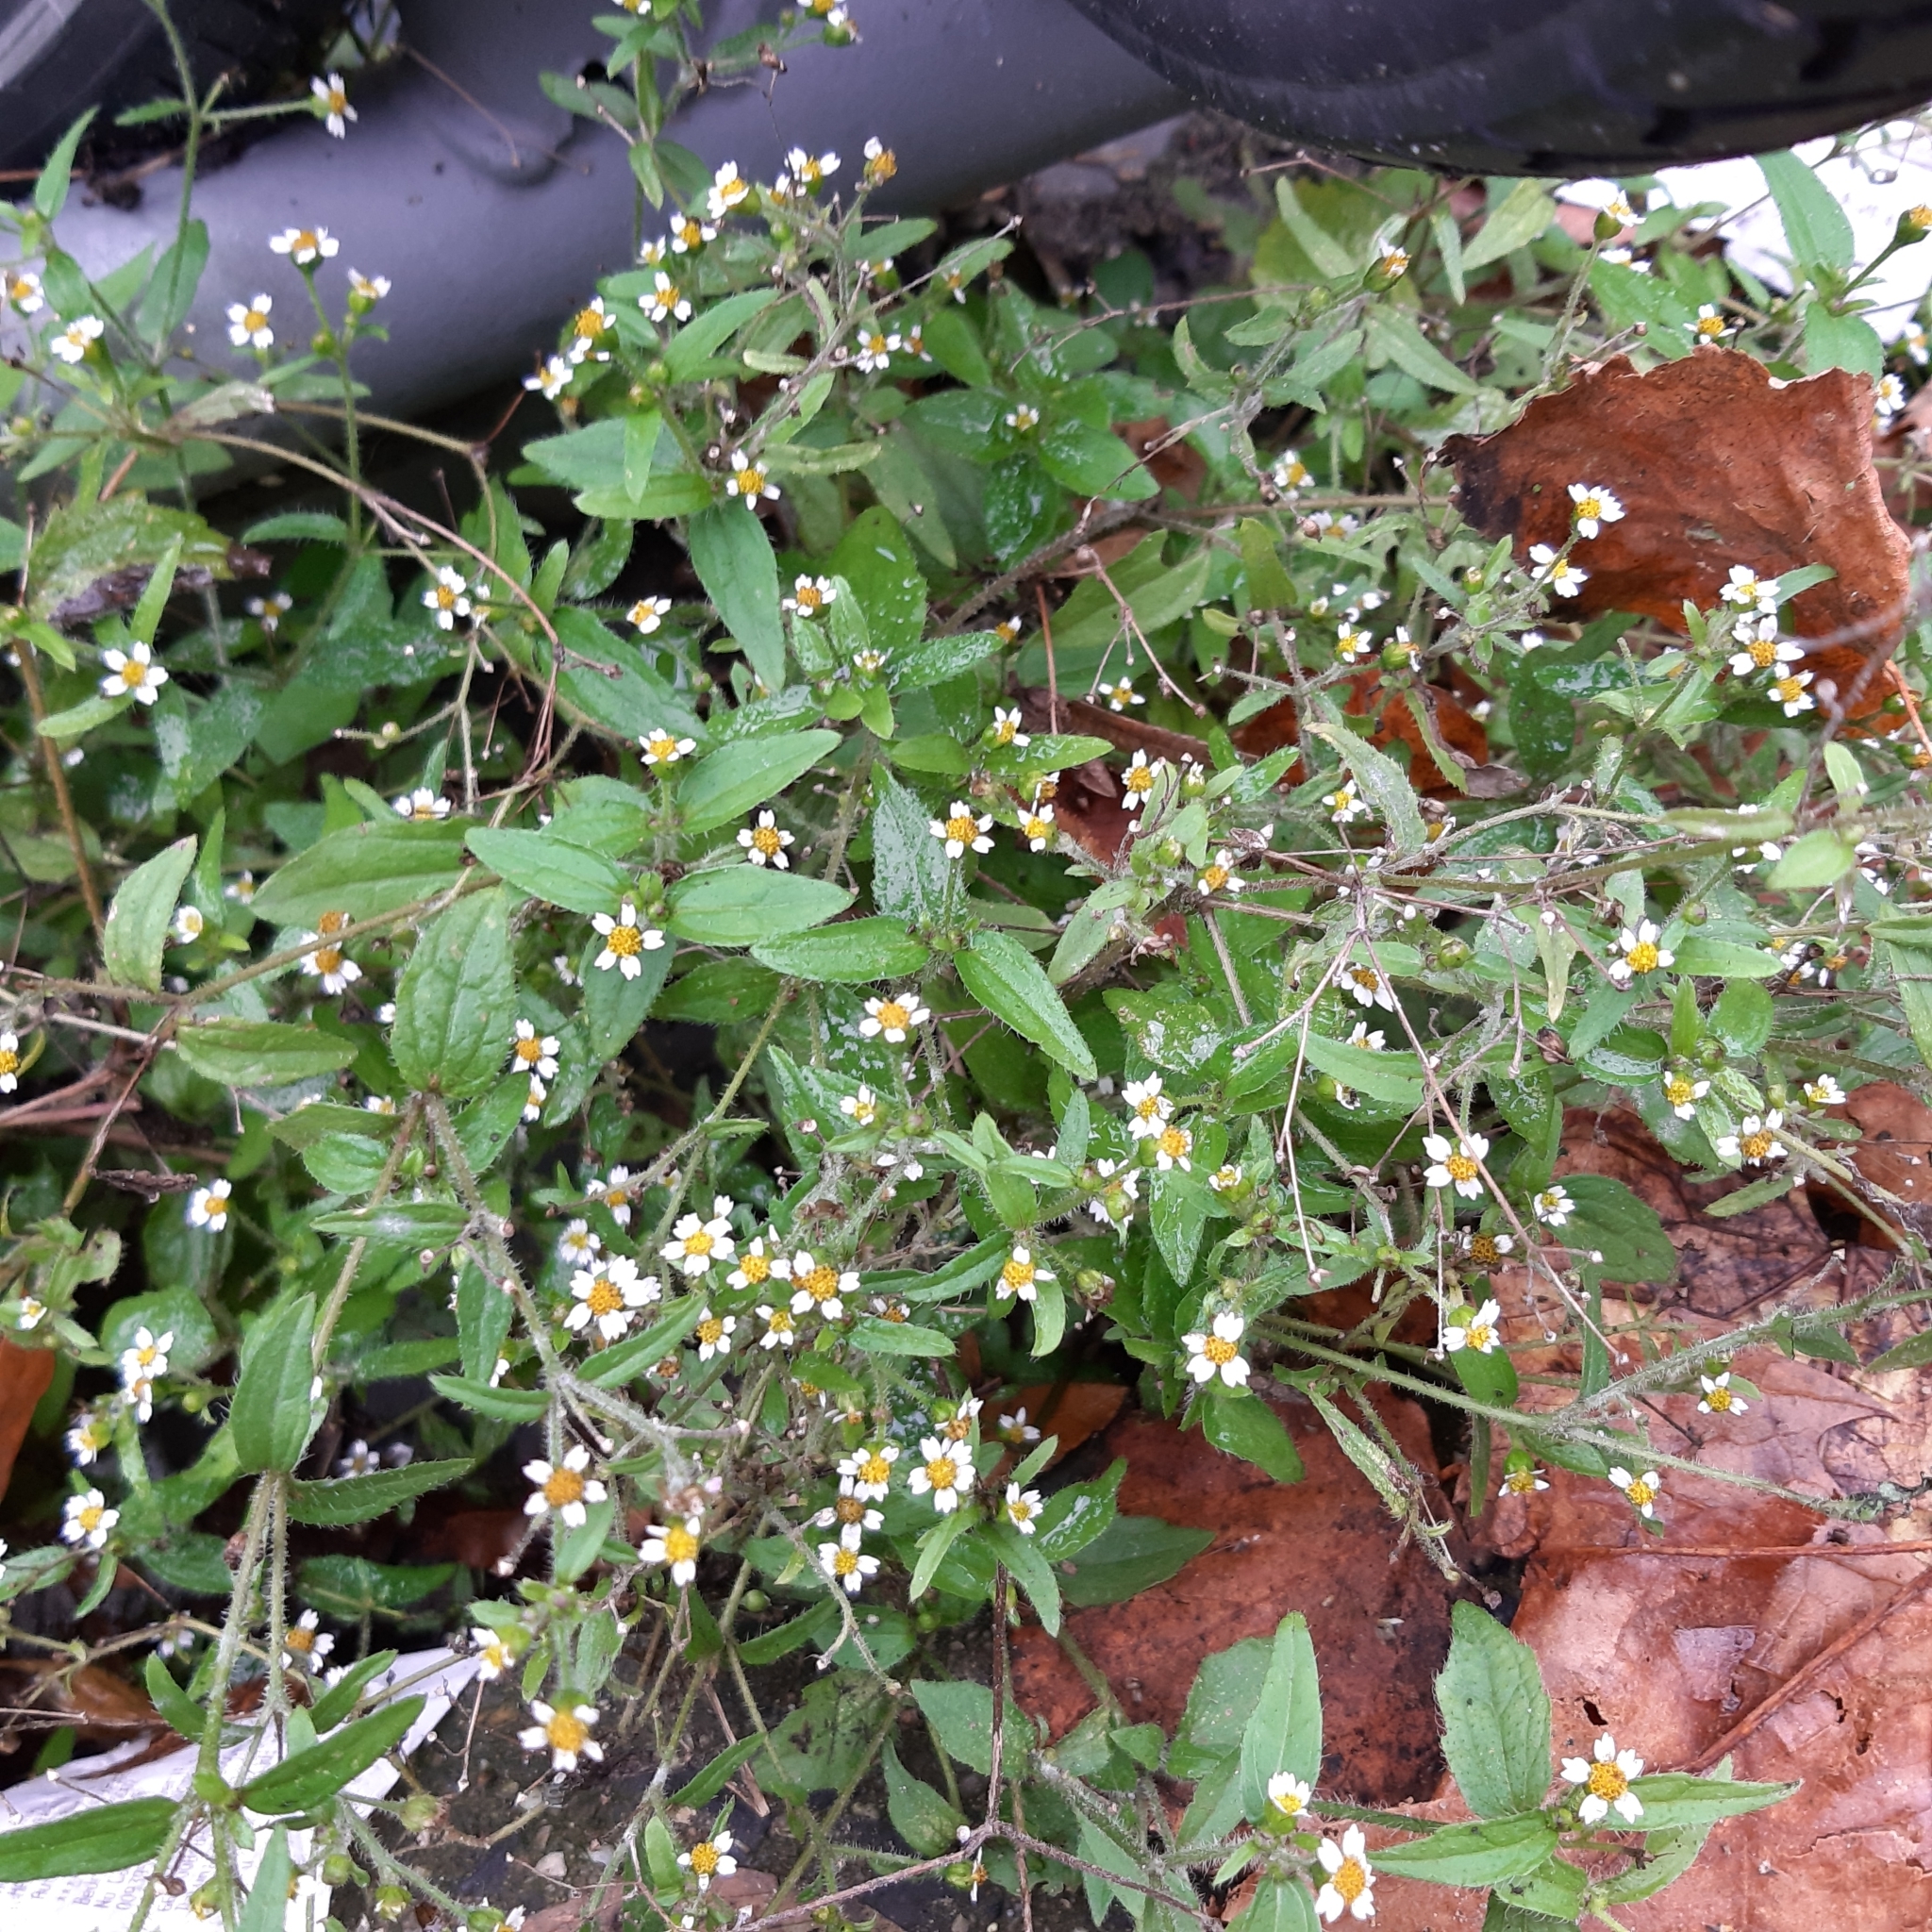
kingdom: Plantae
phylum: Tracheophyta
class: Magnoliopsida
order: Asterales
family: Asteraceae
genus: Galinsoga
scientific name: Galinsoga quadriradiata
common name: Shaggy soldier
